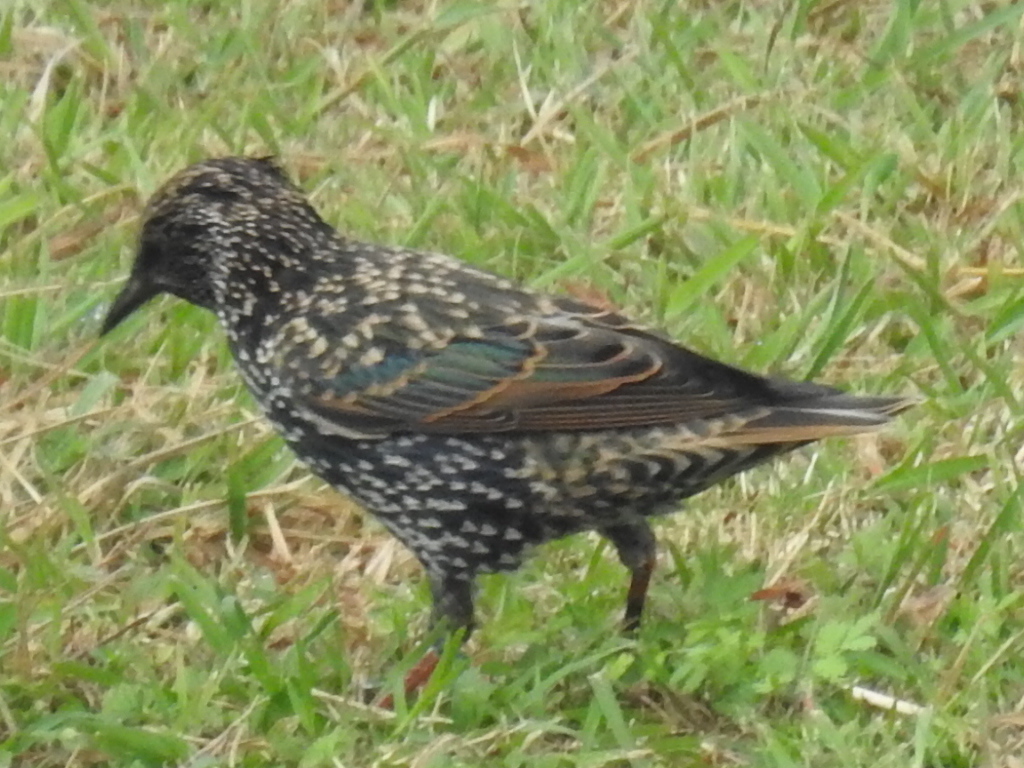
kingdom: Animalia
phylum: Chordata
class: Aves
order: Passeriformes
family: Sturnidae
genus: Sturnus
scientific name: Sturnus vulgaris
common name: Common starling
